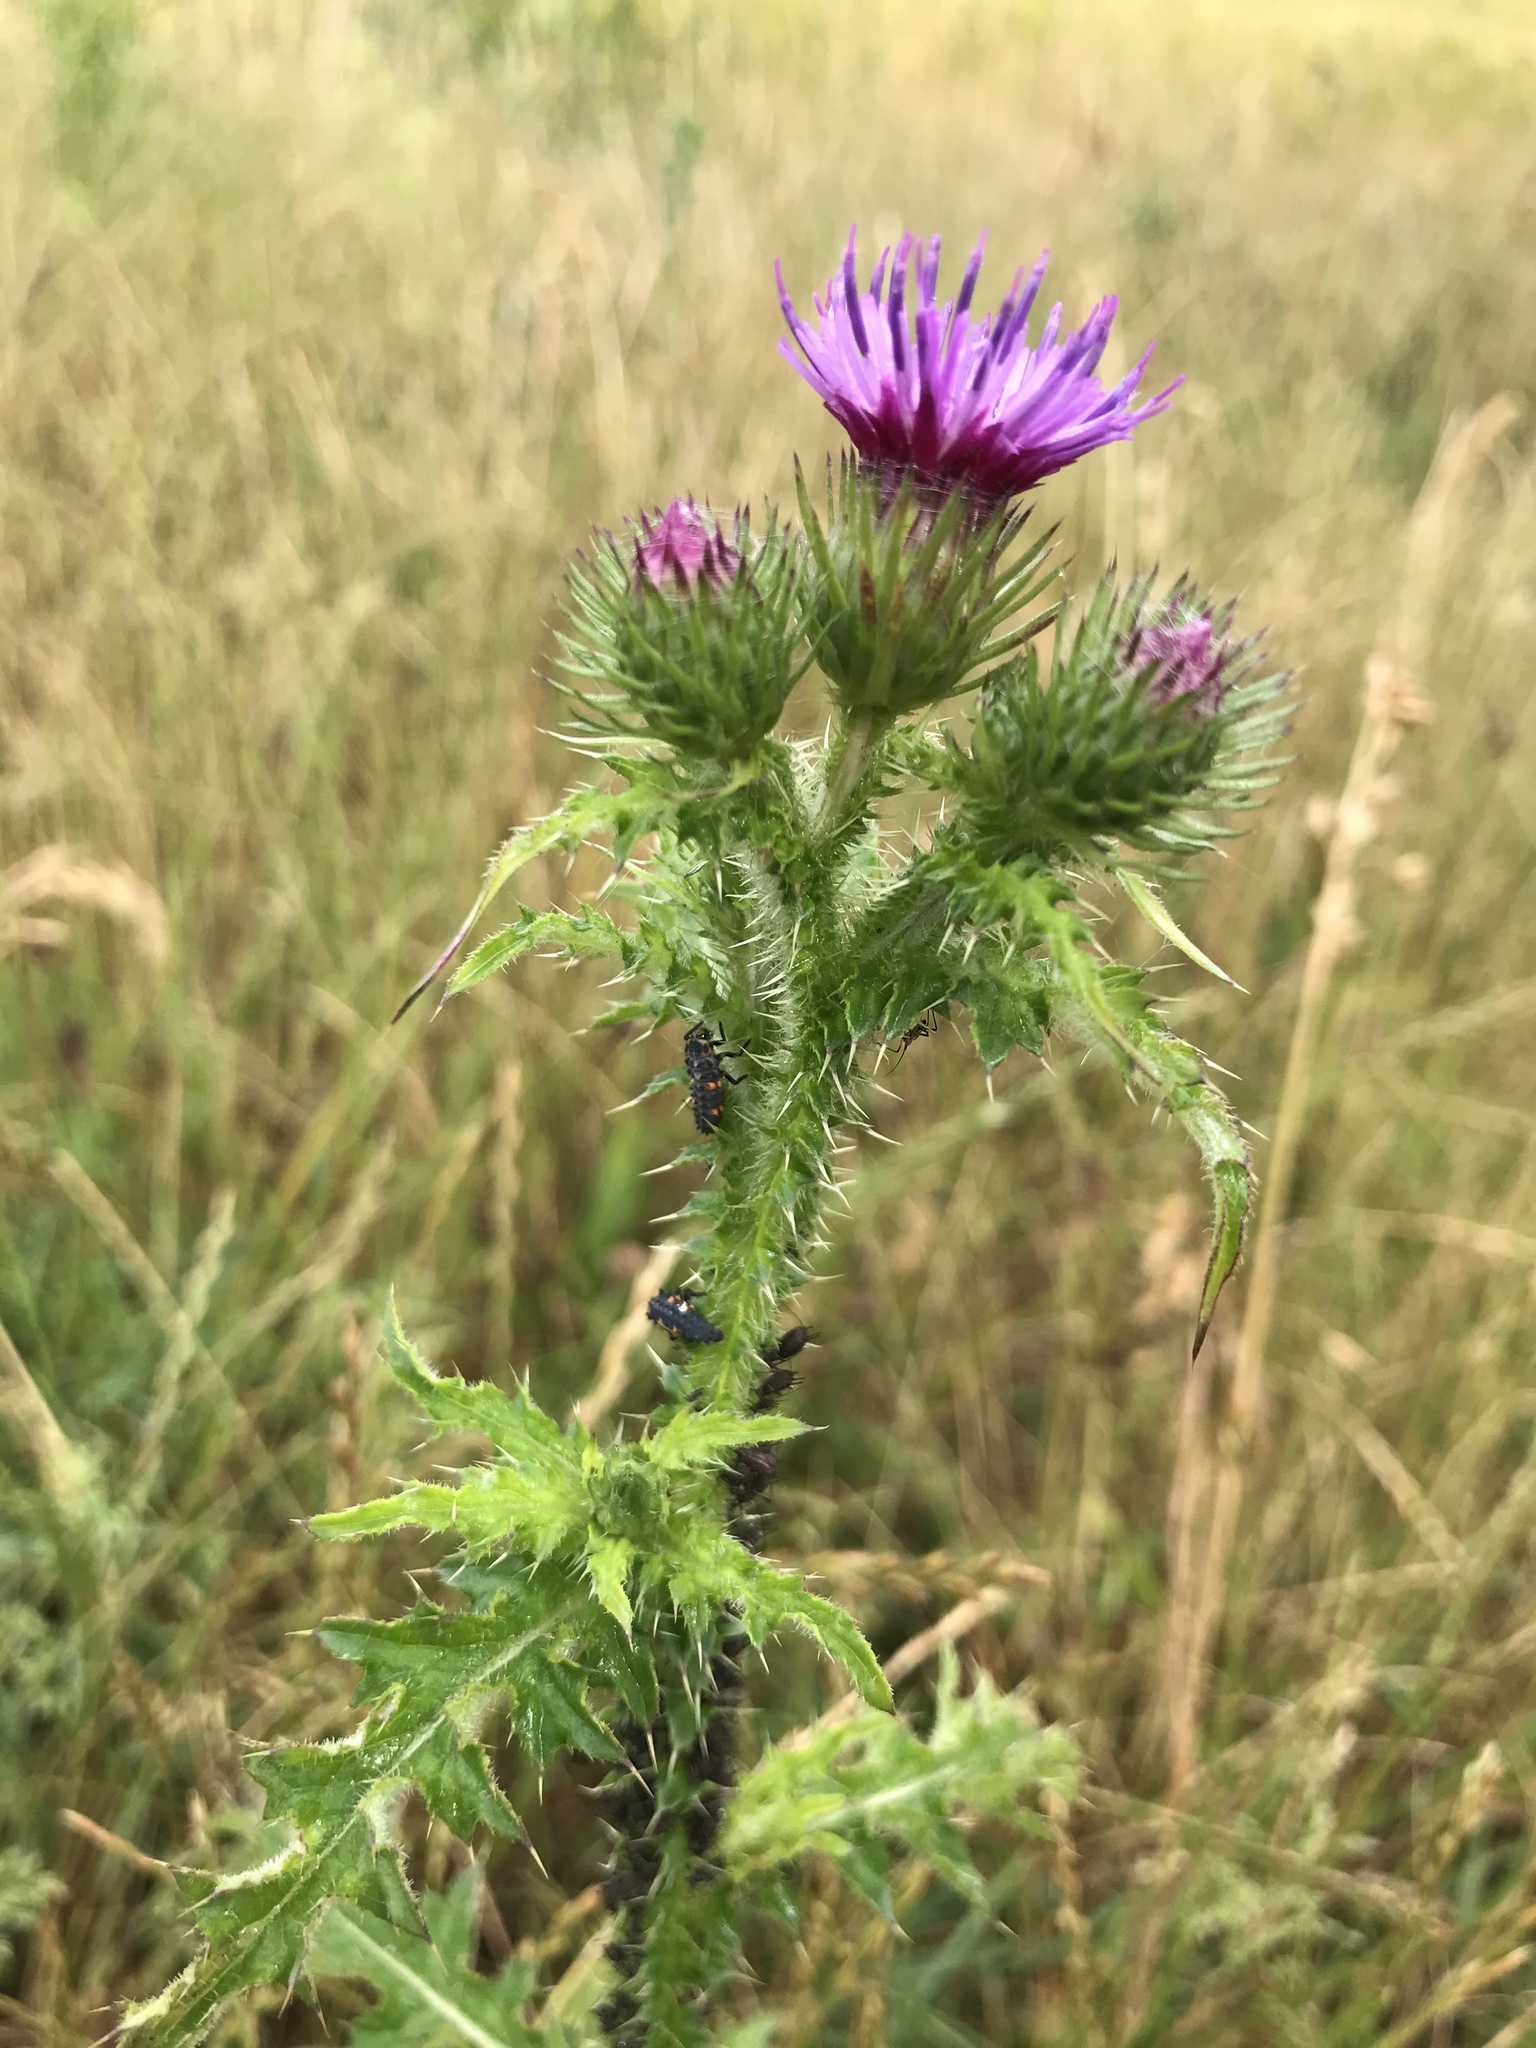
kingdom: Plantae
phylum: Tracheophyta
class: Magnoliopsida
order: Asterales
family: Asteraceae
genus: Carduus
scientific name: Carduus crispus
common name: Welted thistle
